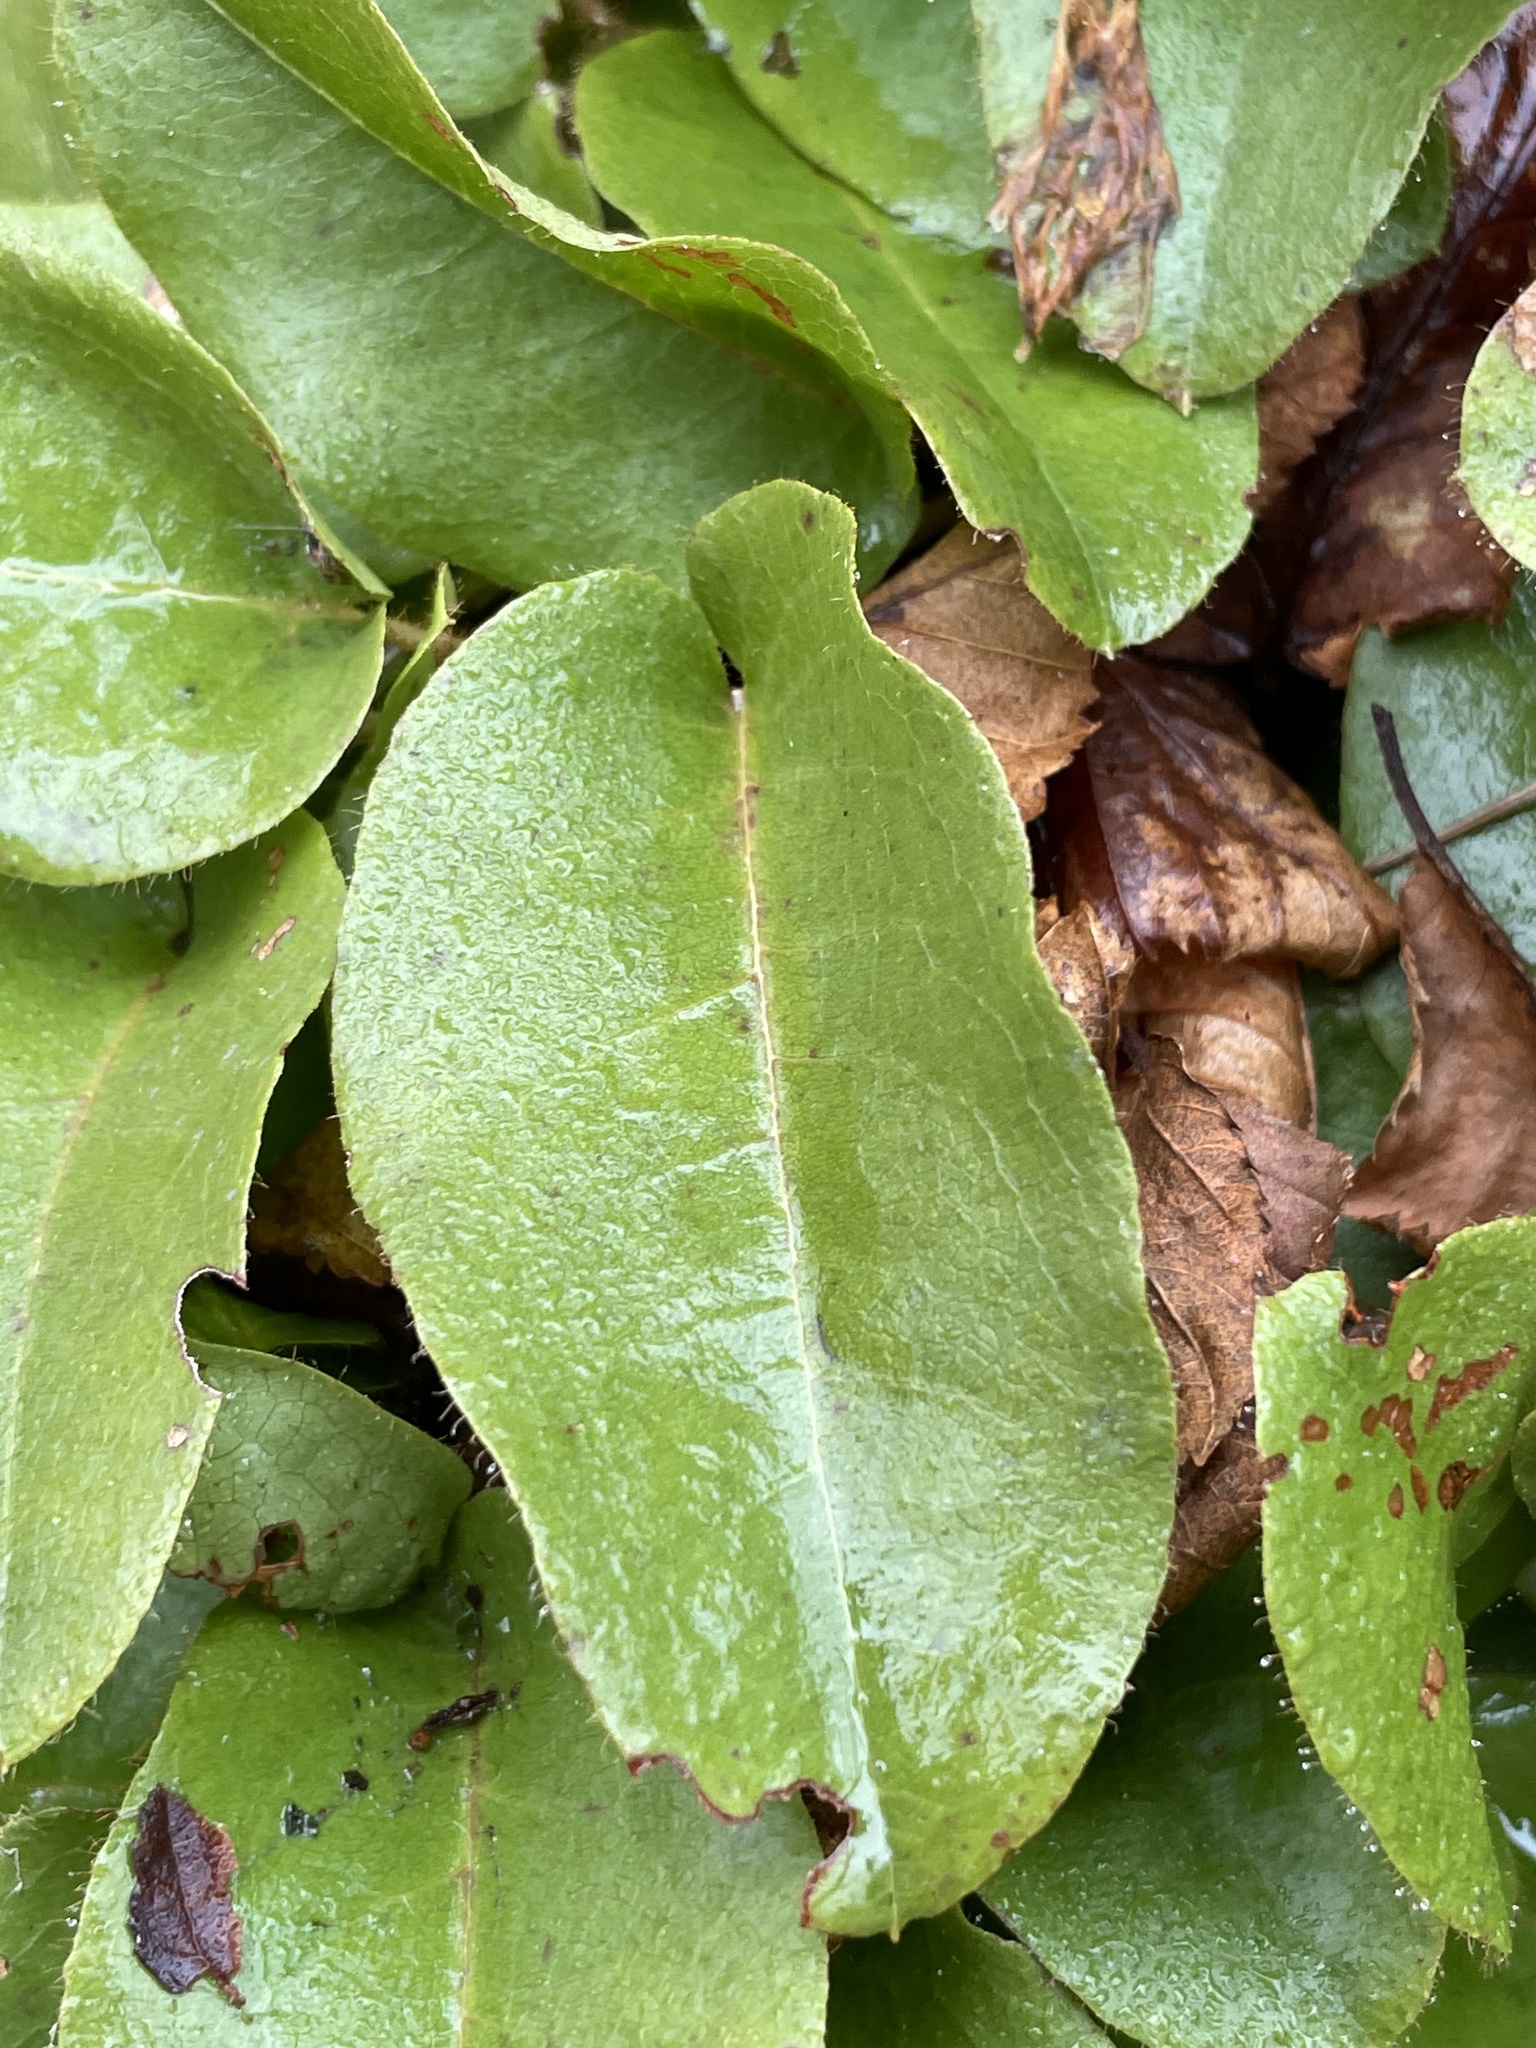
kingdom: Plantae
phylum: Tracheophyta
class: Magnoliopsida
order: Ericales
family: Ericaceae
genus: Epigaea
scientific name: Epigaea repens
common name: Gravelroot
